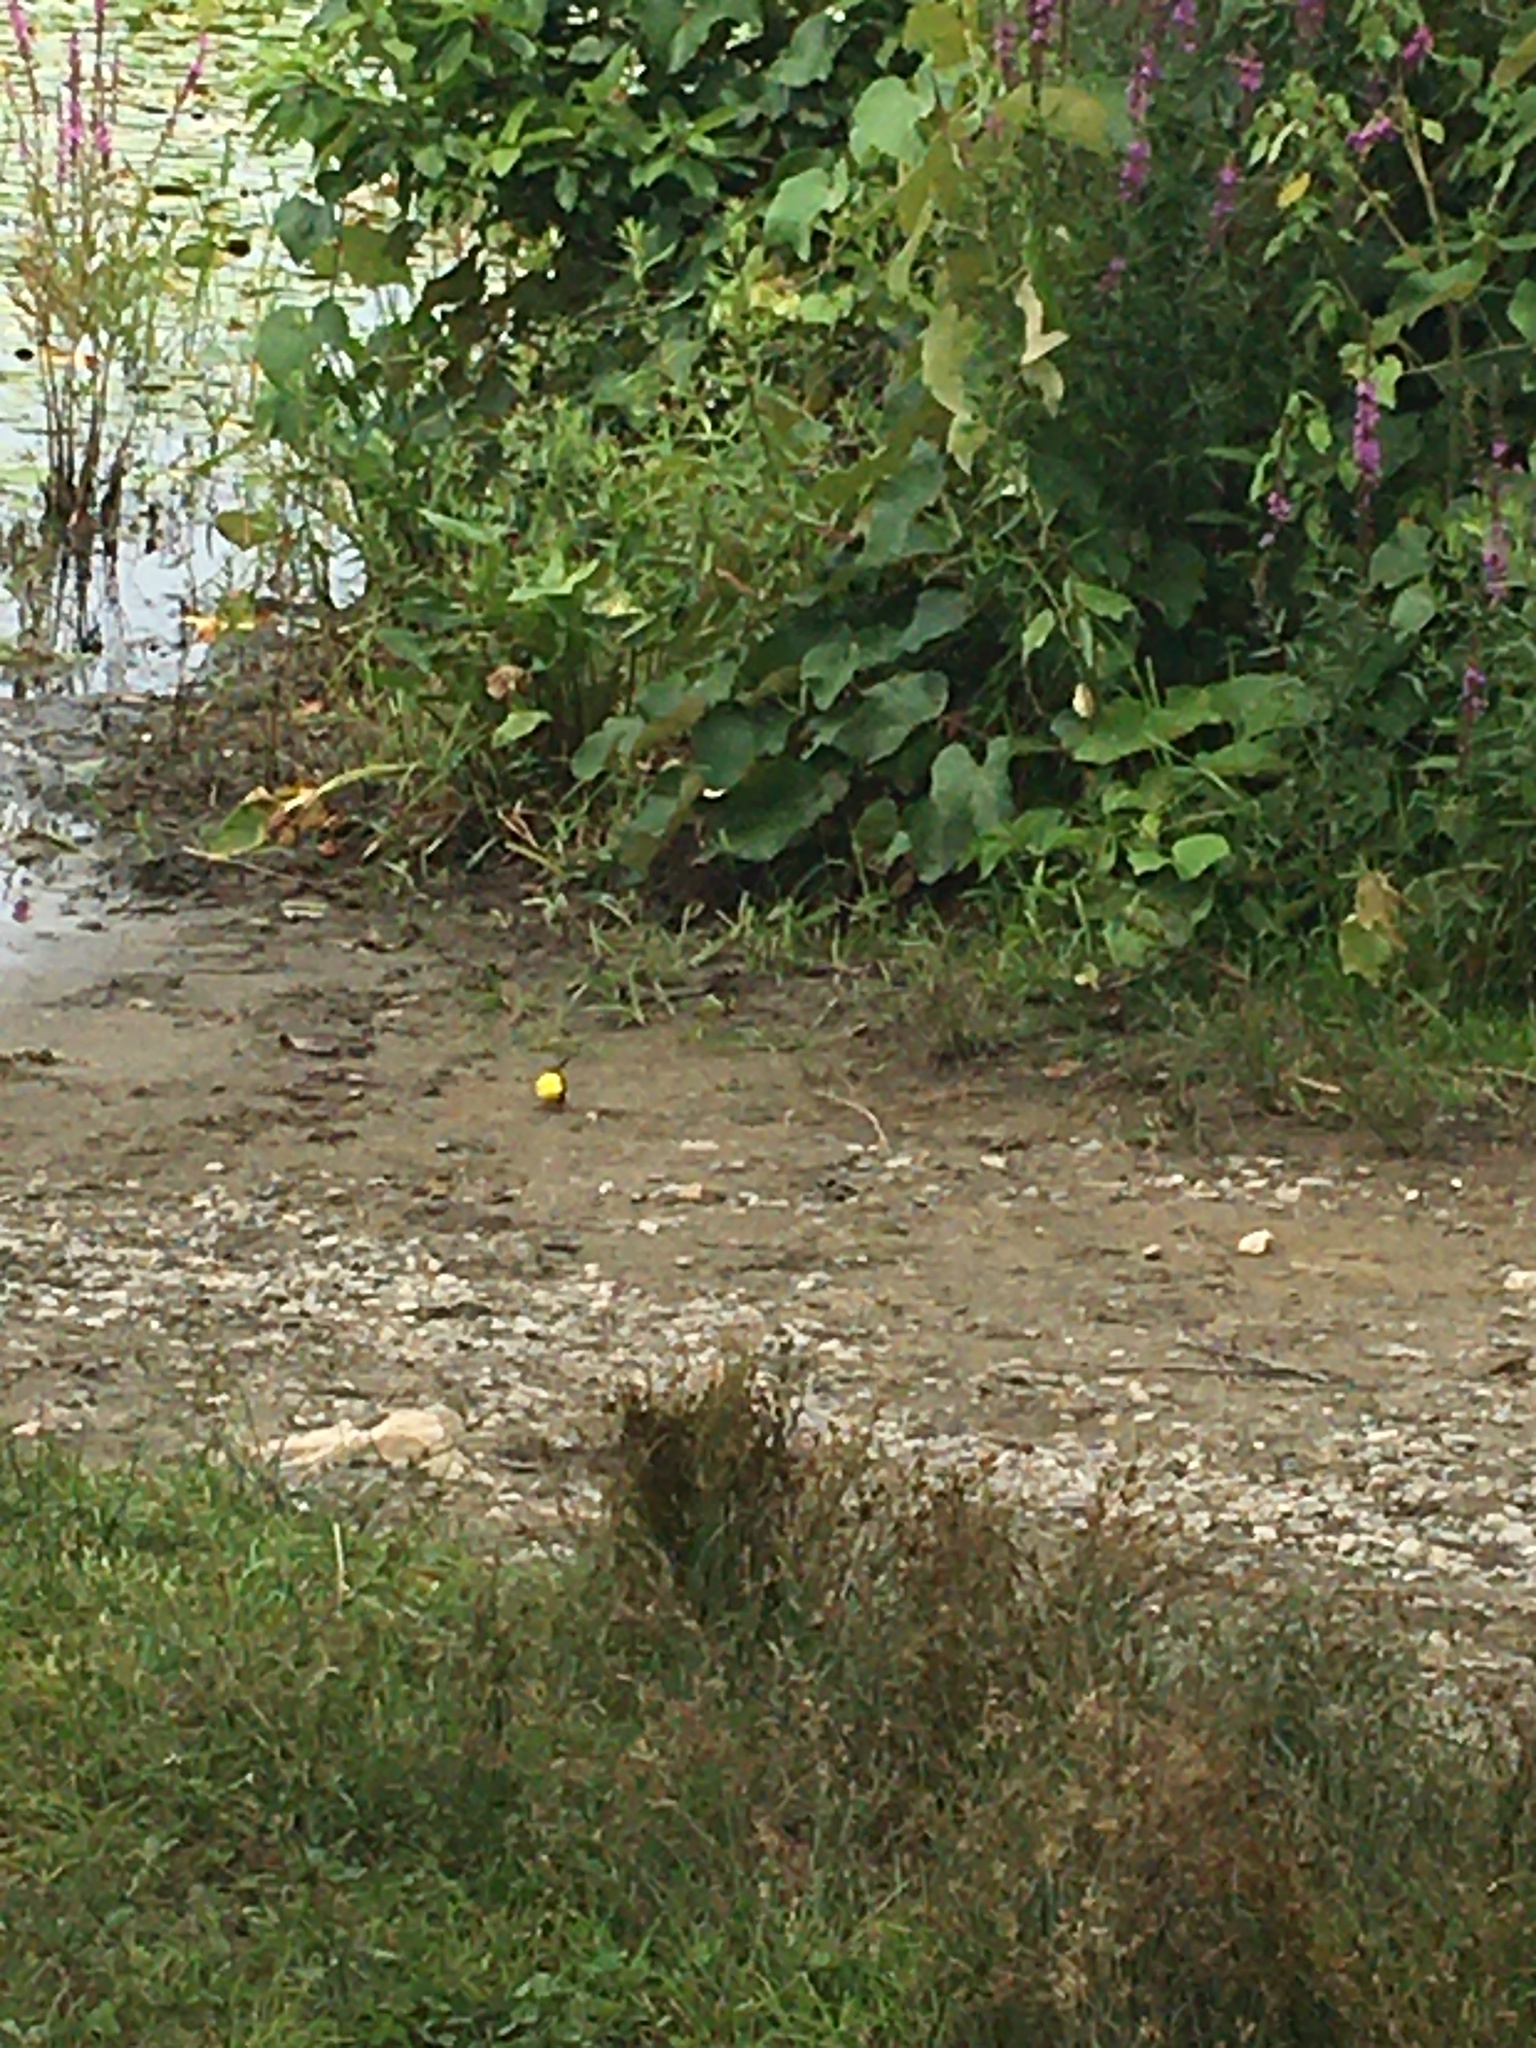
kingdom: Animalia
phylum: Chordata
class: Aves
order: Passeriformes
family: Fringillidae
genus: Spinus
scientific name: Spinus tristis
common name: American goldfinch
